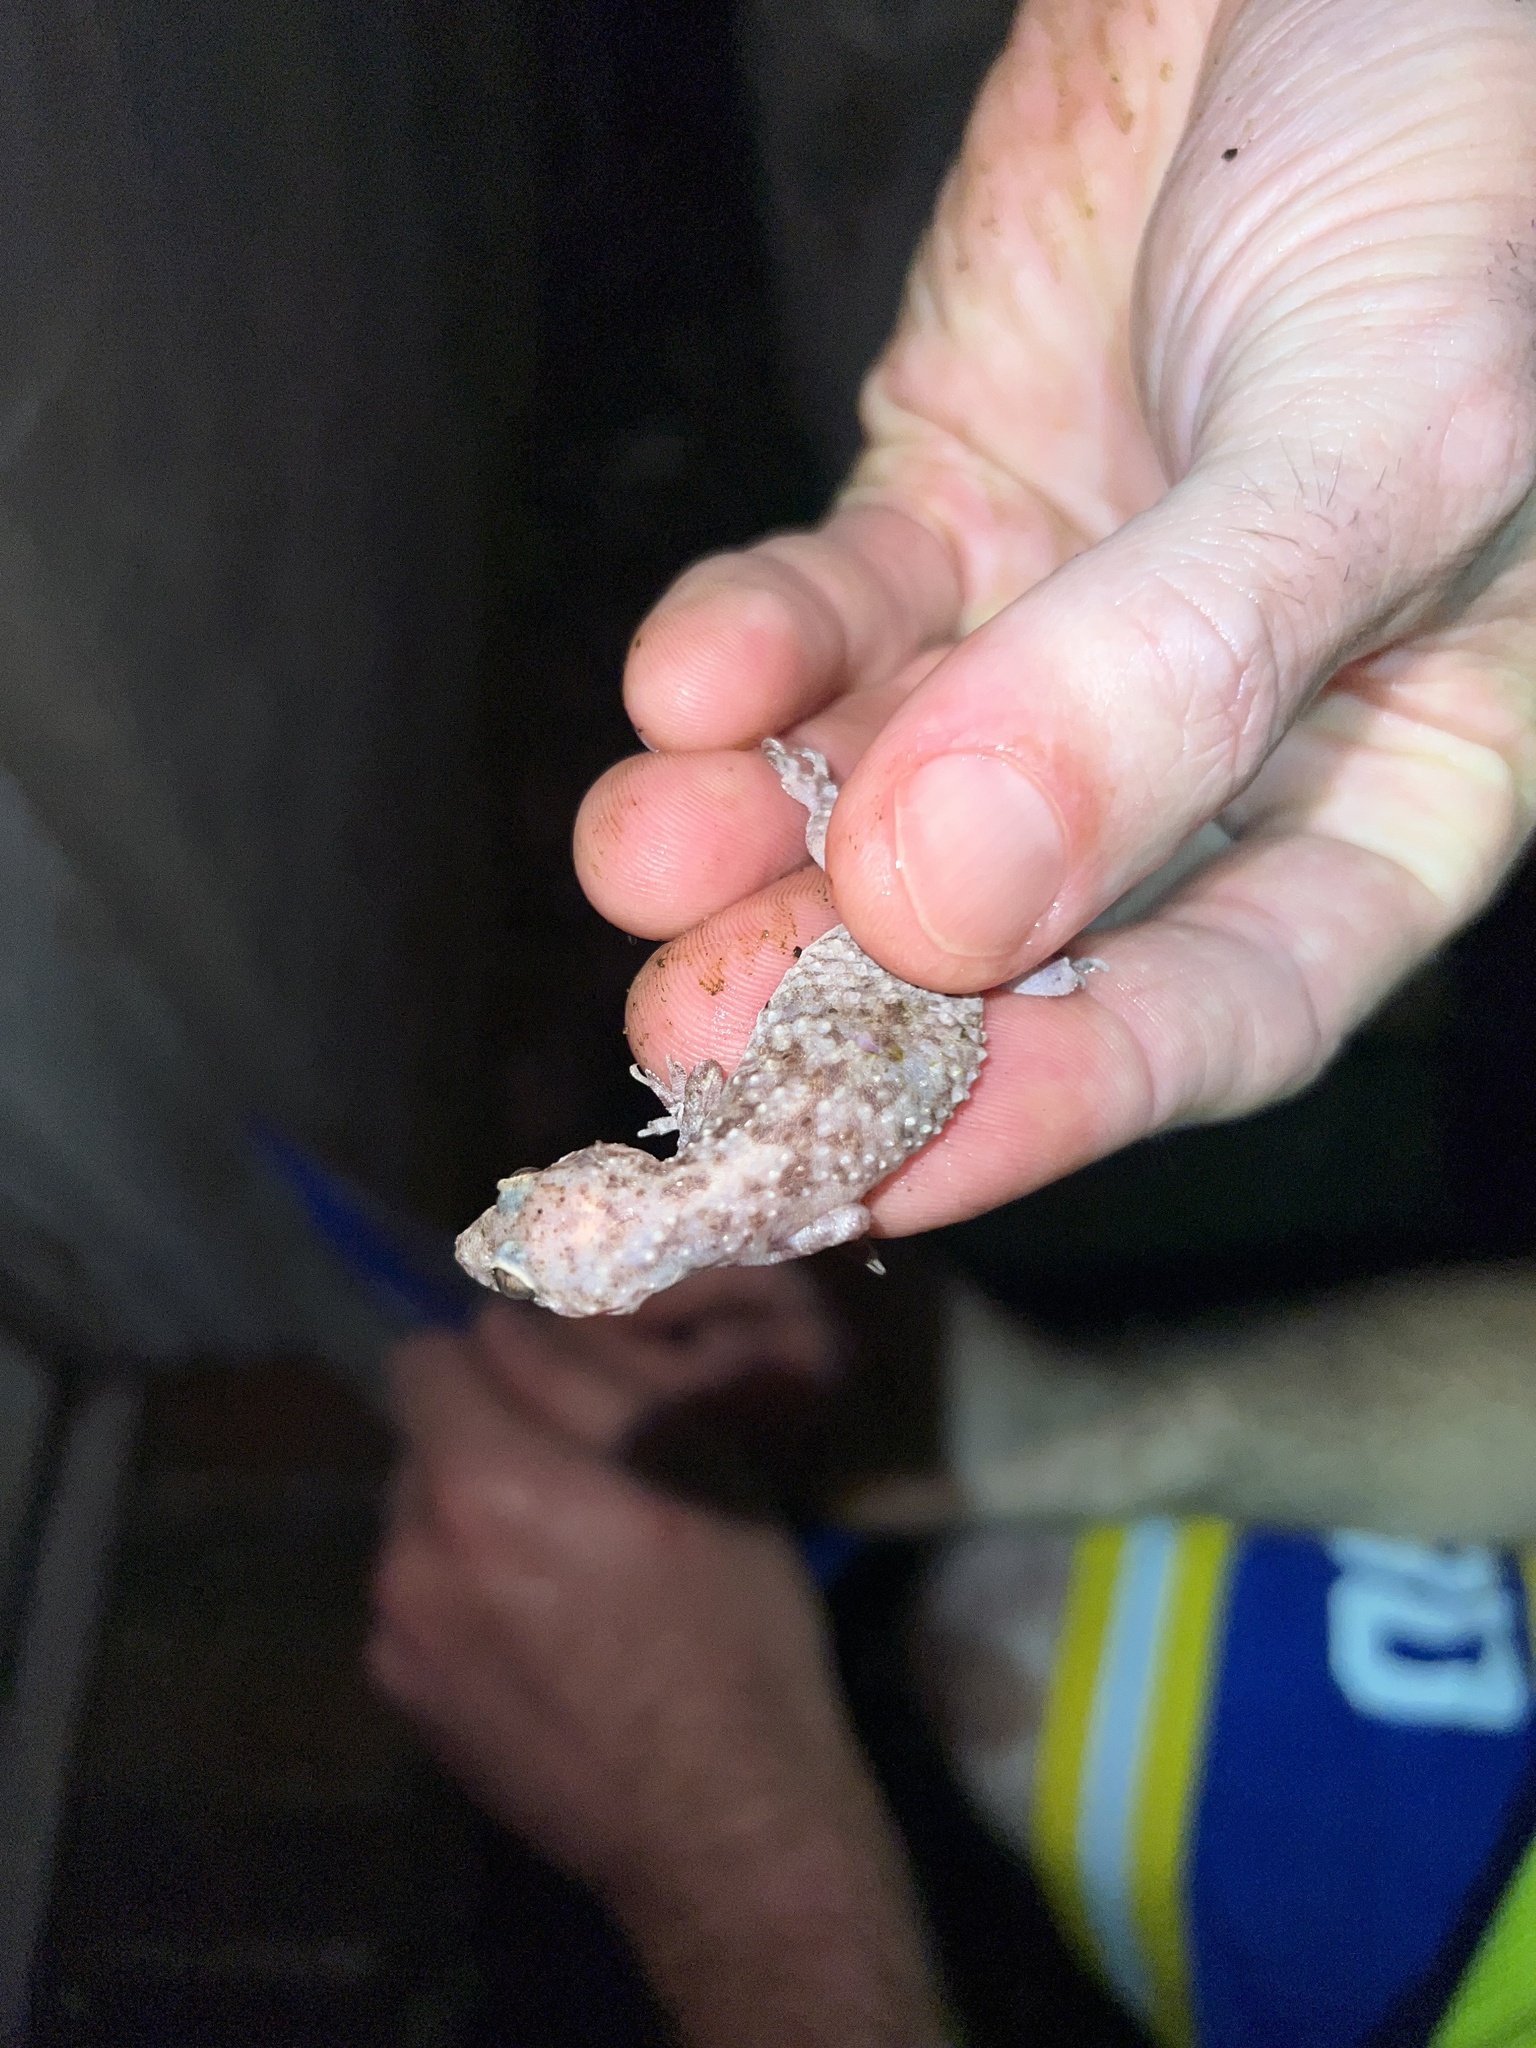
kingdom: Animalia
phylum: Chordata
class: Squamata
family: Gekkonidae
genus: Hemidactylus
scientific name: Hemidactylus turcicus
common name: Turkish gecko
